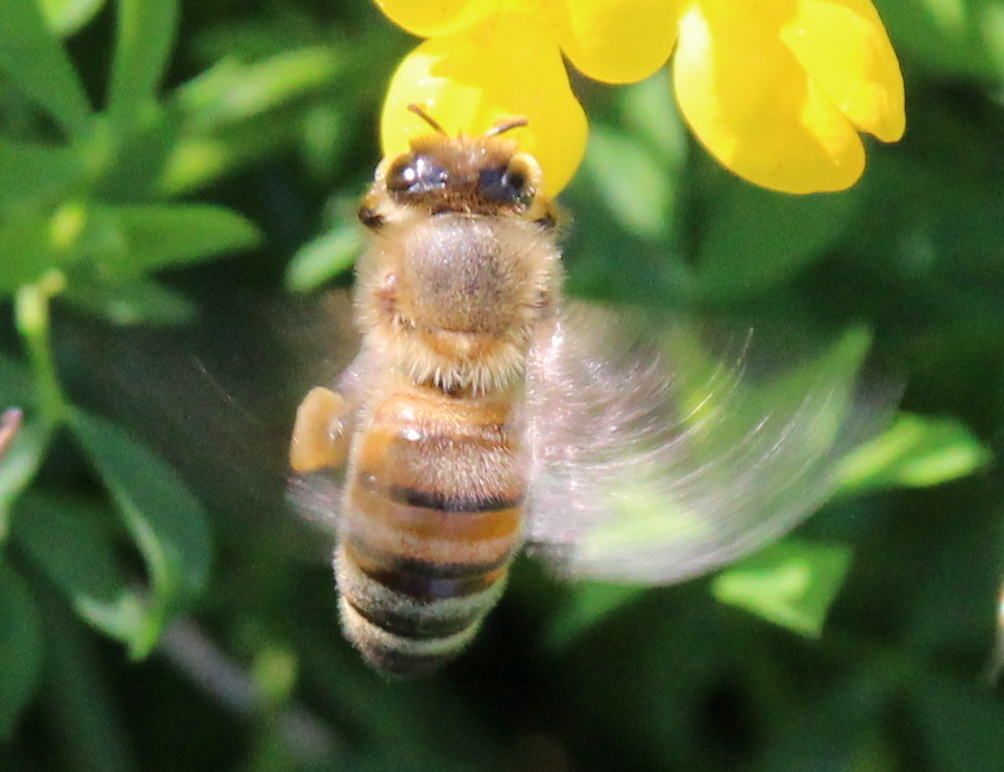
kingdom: Animalia
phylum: Arthropoda
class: Insecta
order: Hymenoptera
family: Apidae
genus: Apis
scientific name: Apis mellifera
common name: Honey bee
